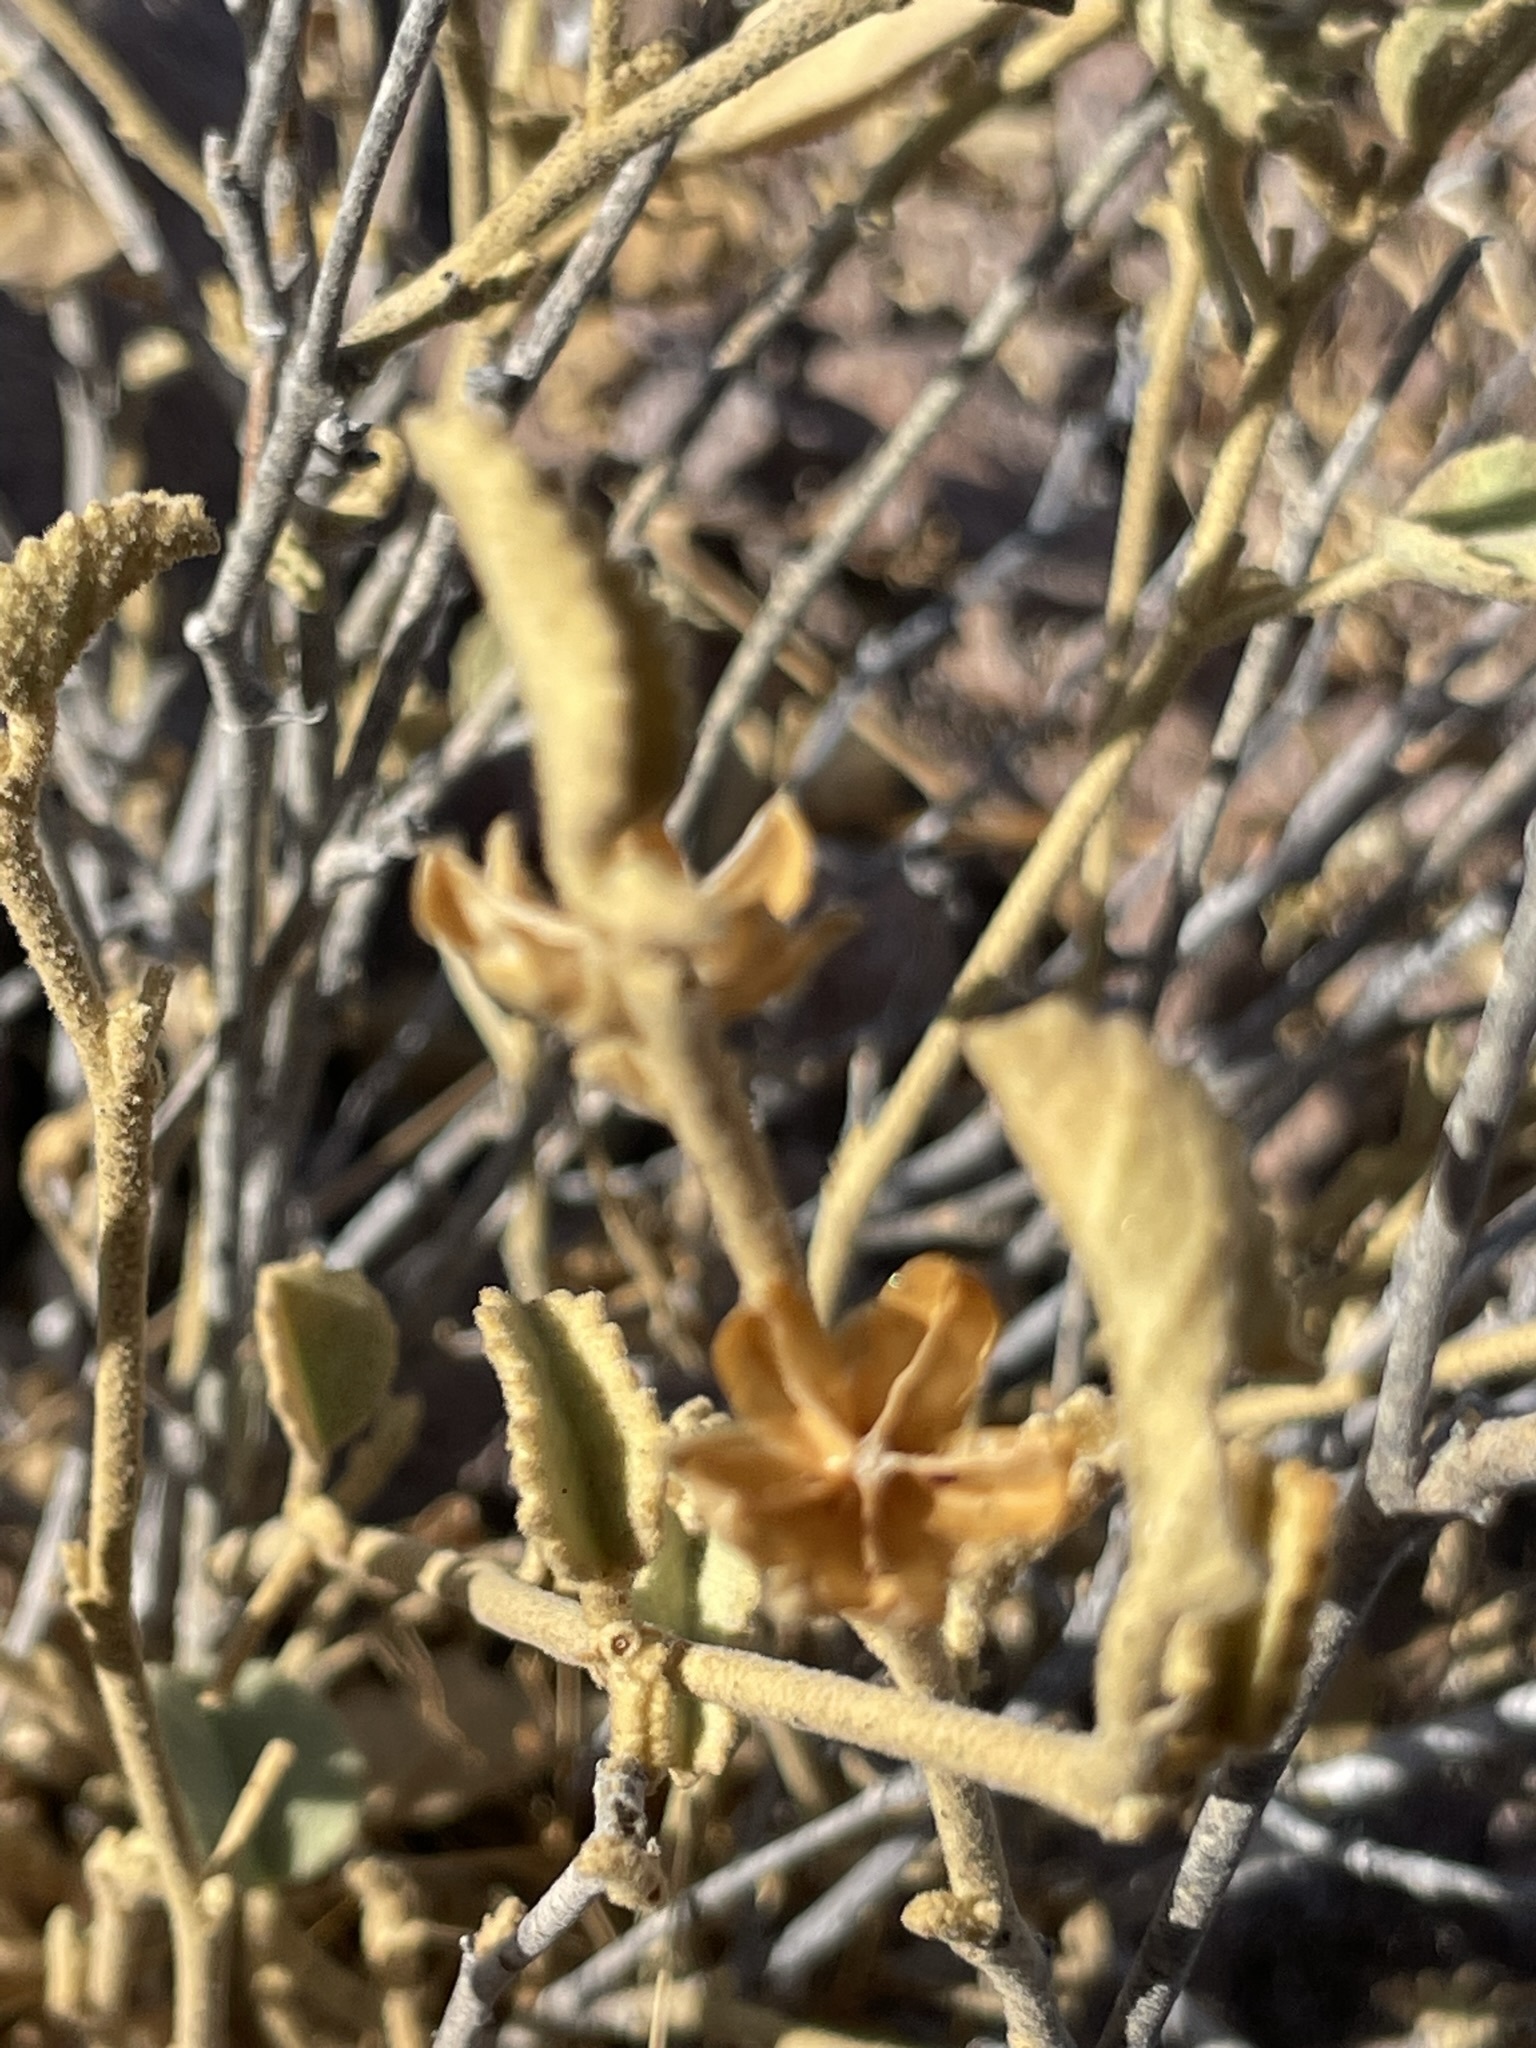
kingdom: Plantae
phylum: Tracheophyta
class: Magnoliopsida
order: Malvales
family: Malvaceae
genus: Hibiscus
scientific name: Hibiscus denudatus
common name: Paleface
